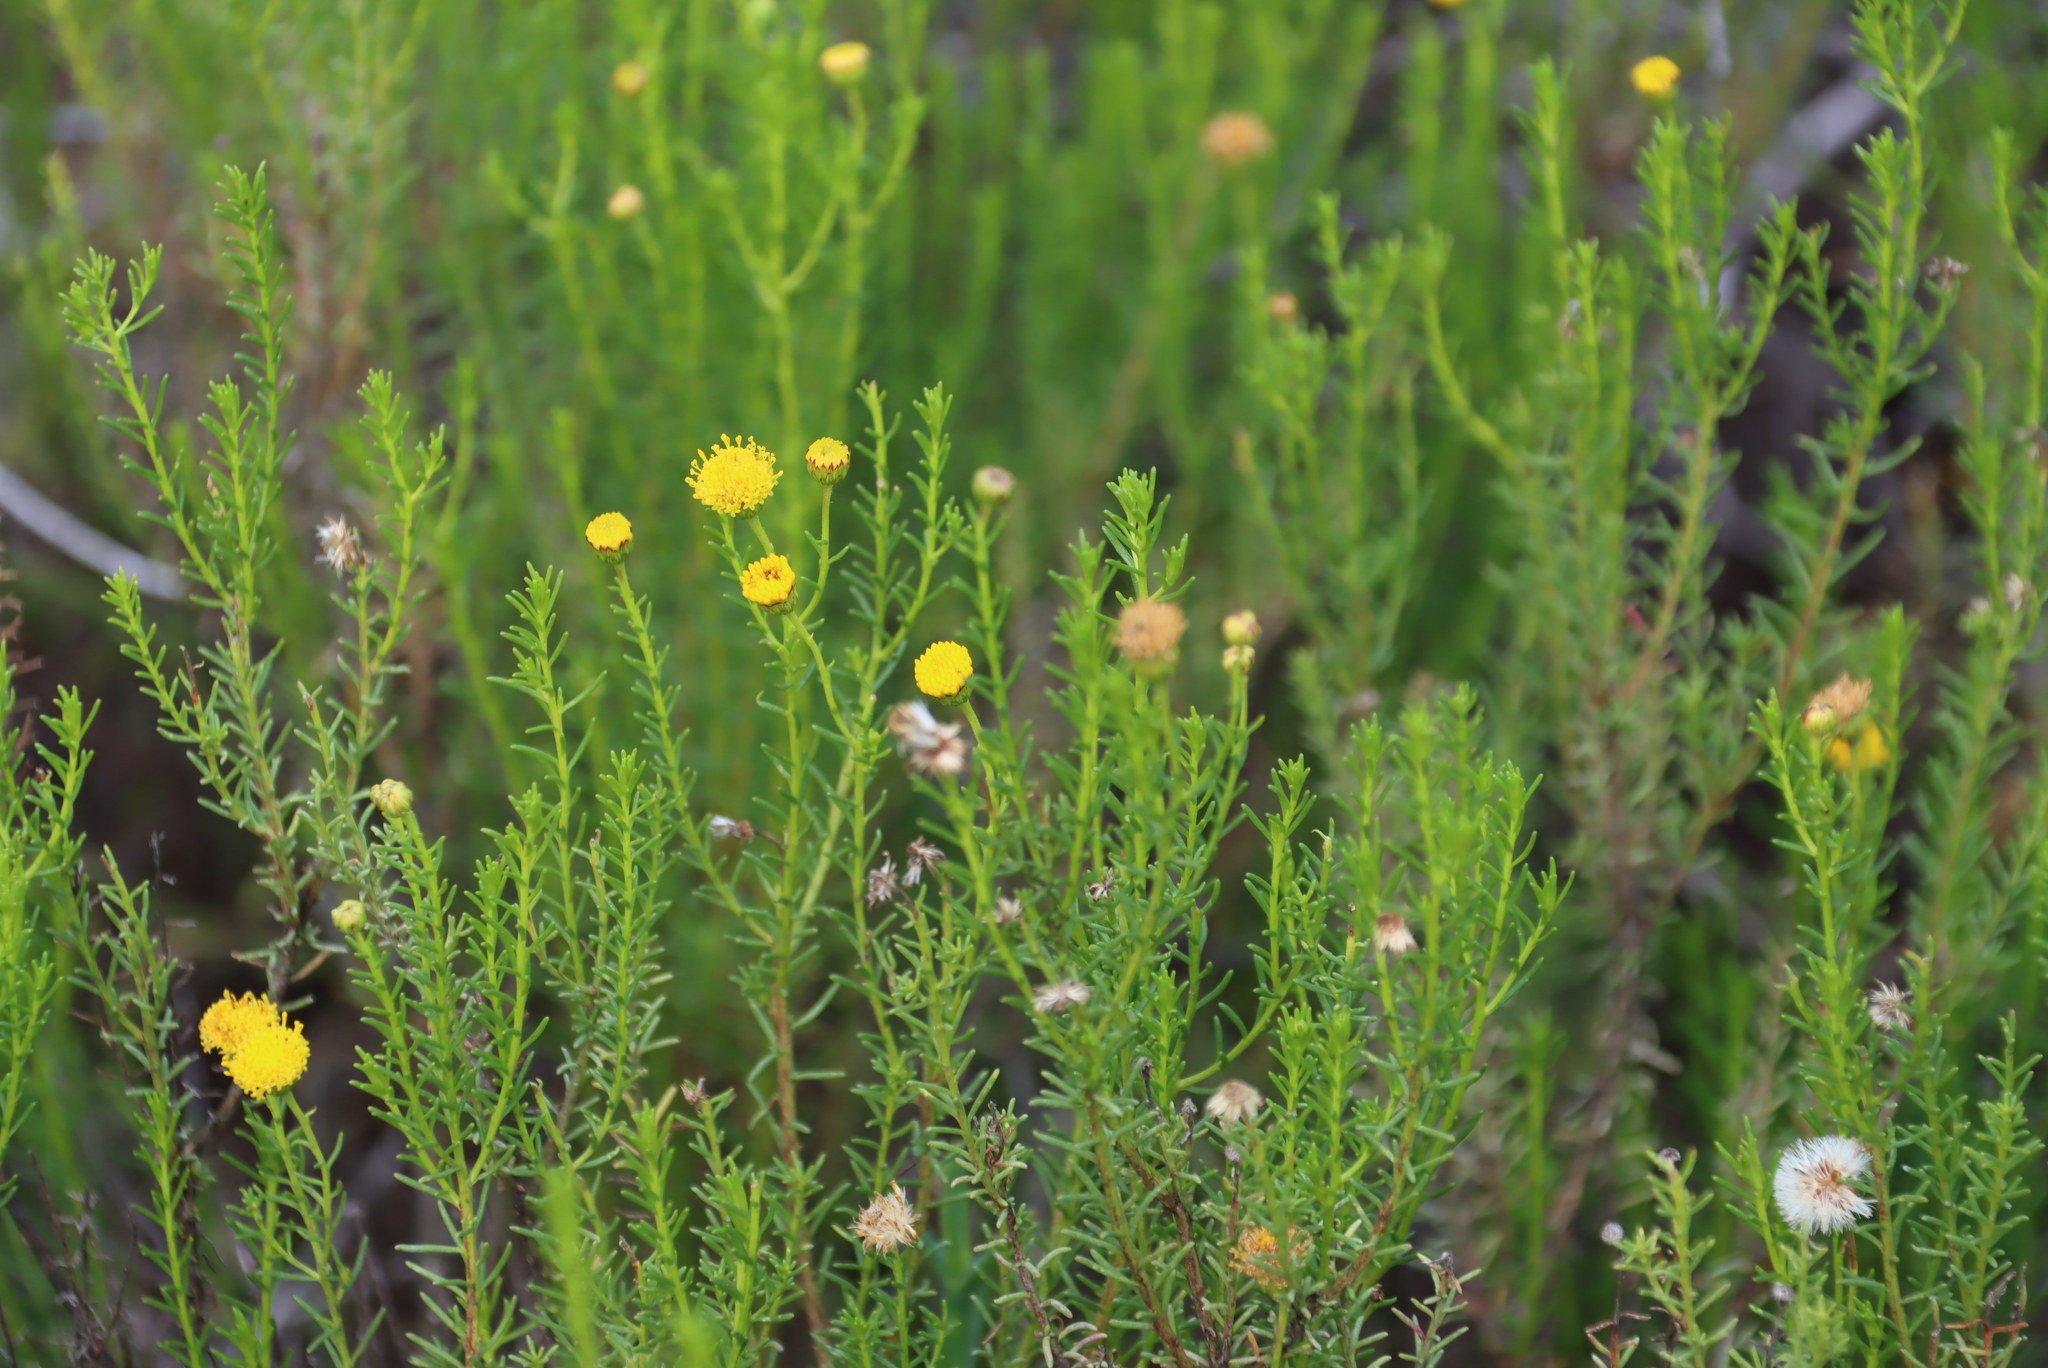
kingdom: Plantae
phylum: Tracheophyta
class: Magnoliopsida
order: Asterales
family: Asteraceae
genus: Chrysocoma
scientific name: Chrysocoma ciliata
